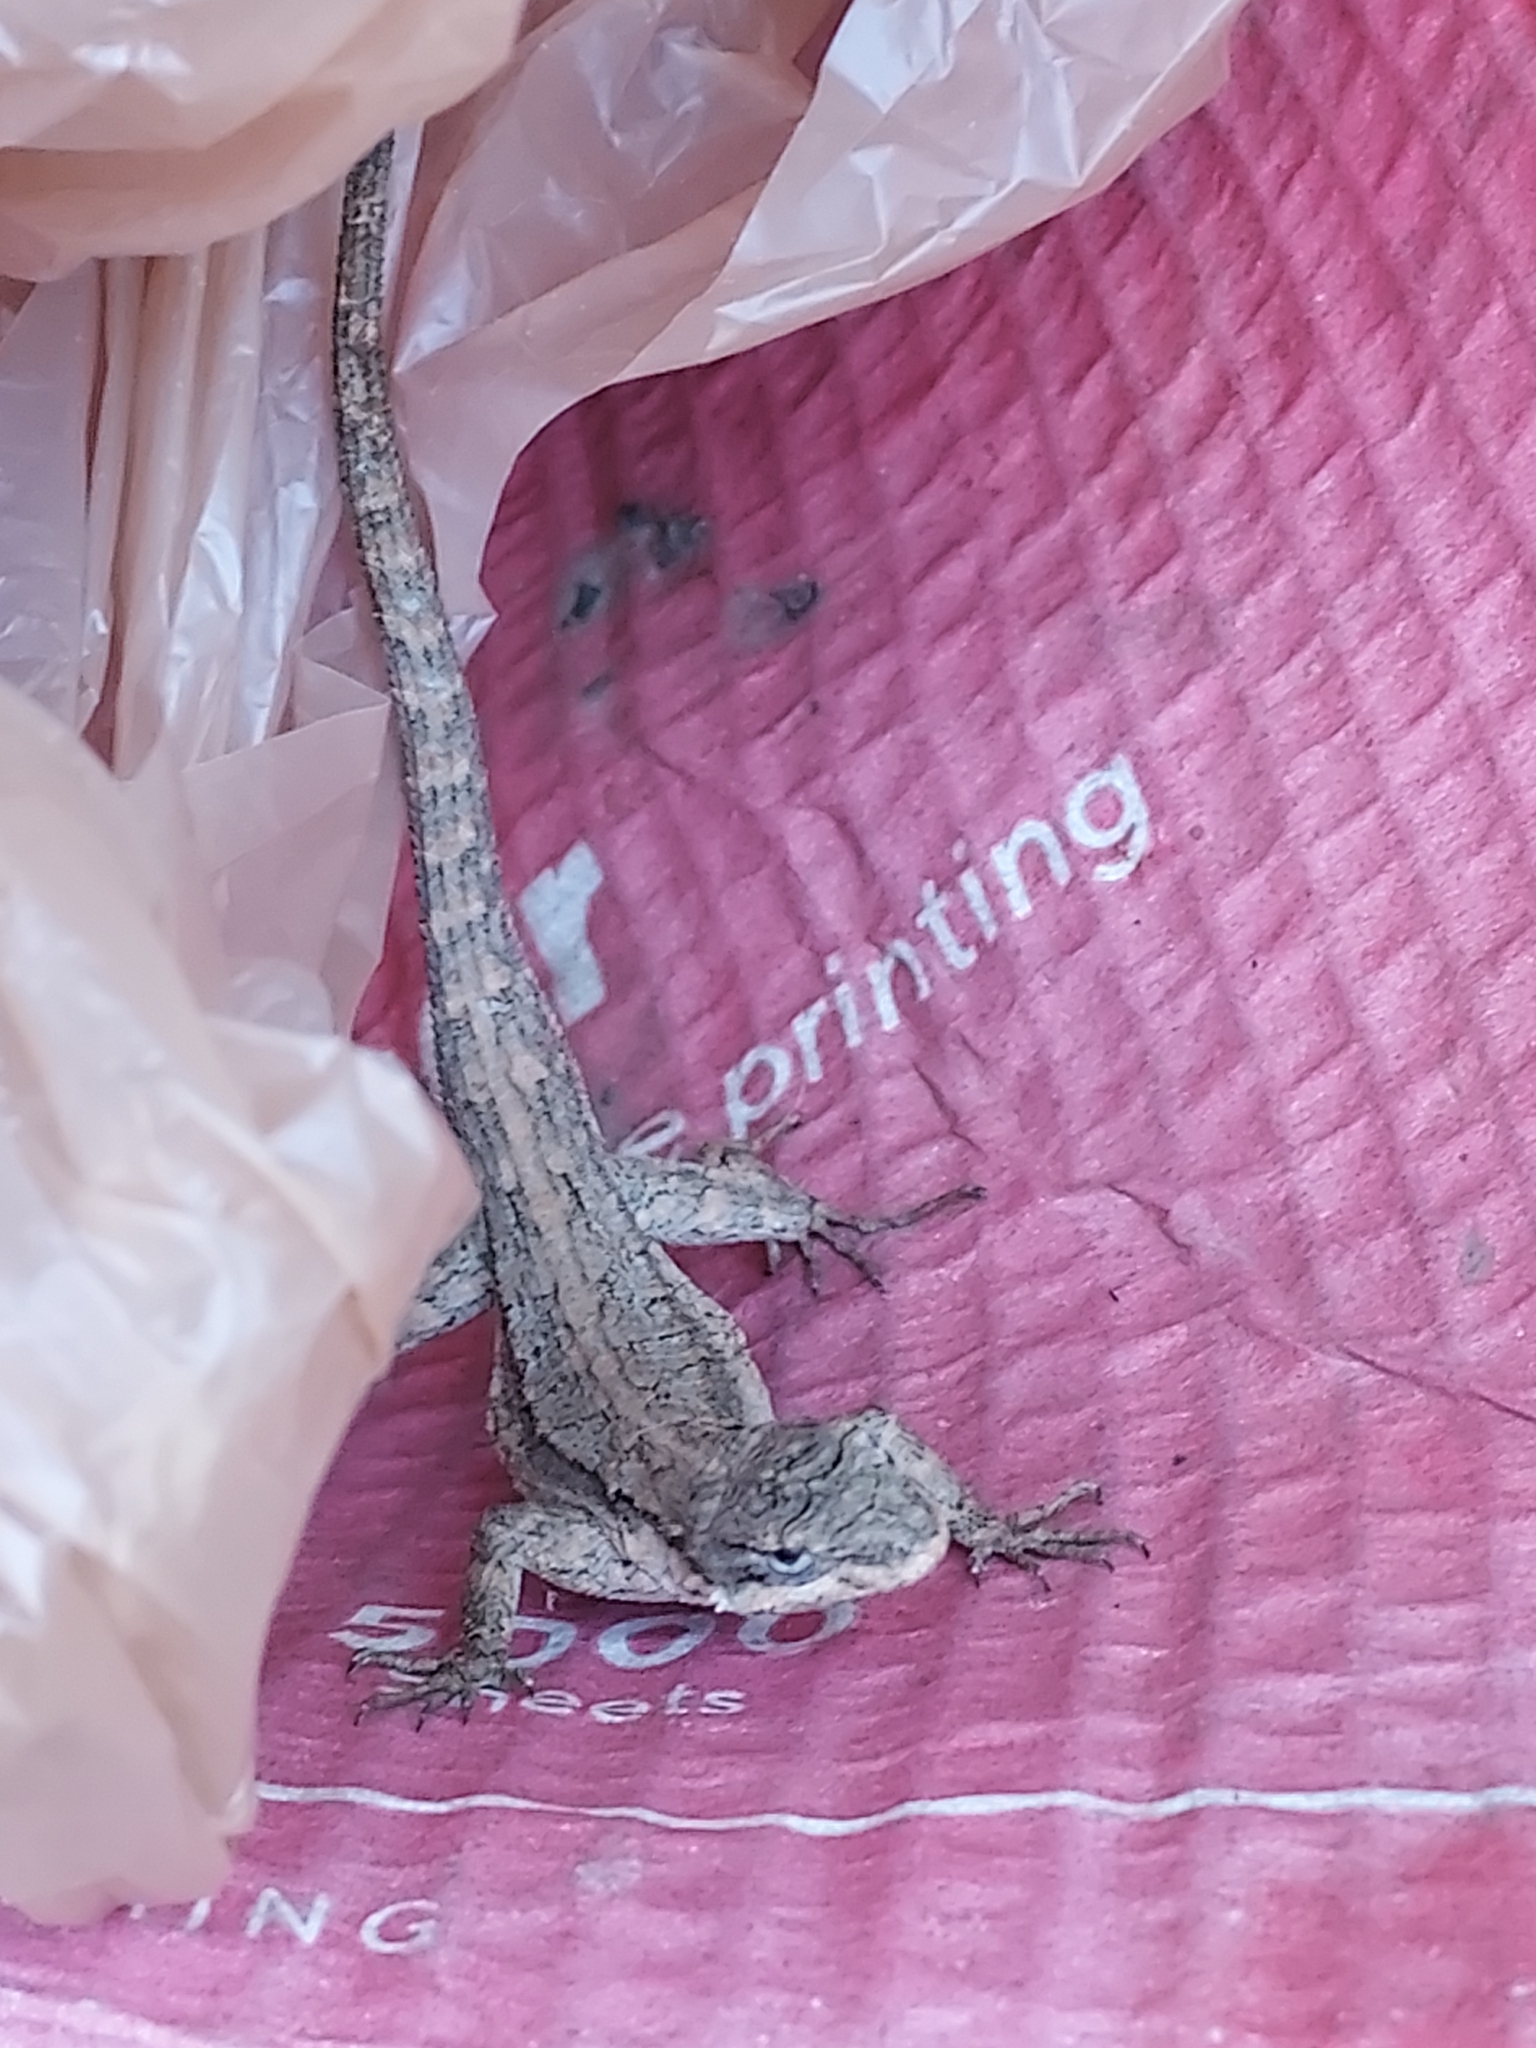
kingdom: Animalia
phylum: Chordata
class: Squamata
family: Phrynosomatidae
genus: Urosaurus
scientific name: Urosaurus ornatus
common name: Ornate tree lizard
